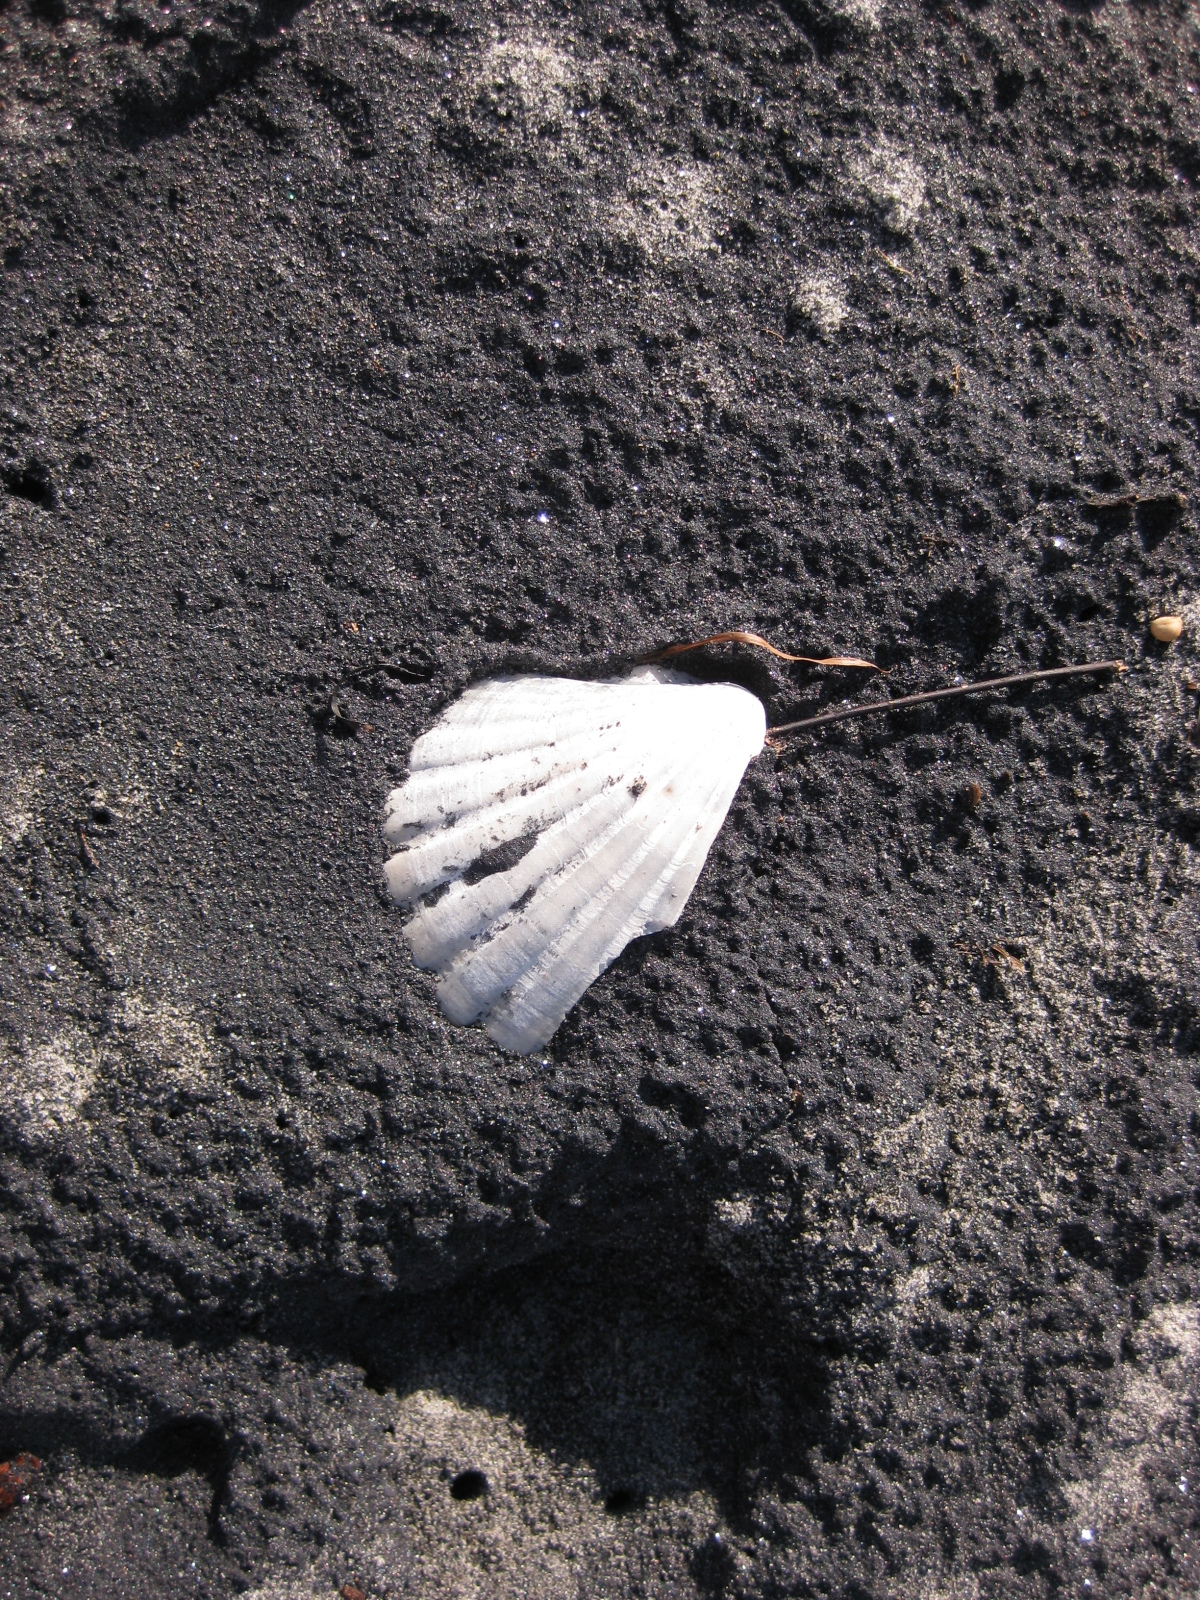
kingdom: Animalia
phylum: Mollusca
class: Bivalvia
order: Pectinida
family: Pectinidae
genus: Pecten
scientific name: Pecten novaezelandiae
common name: New zealand scallop
